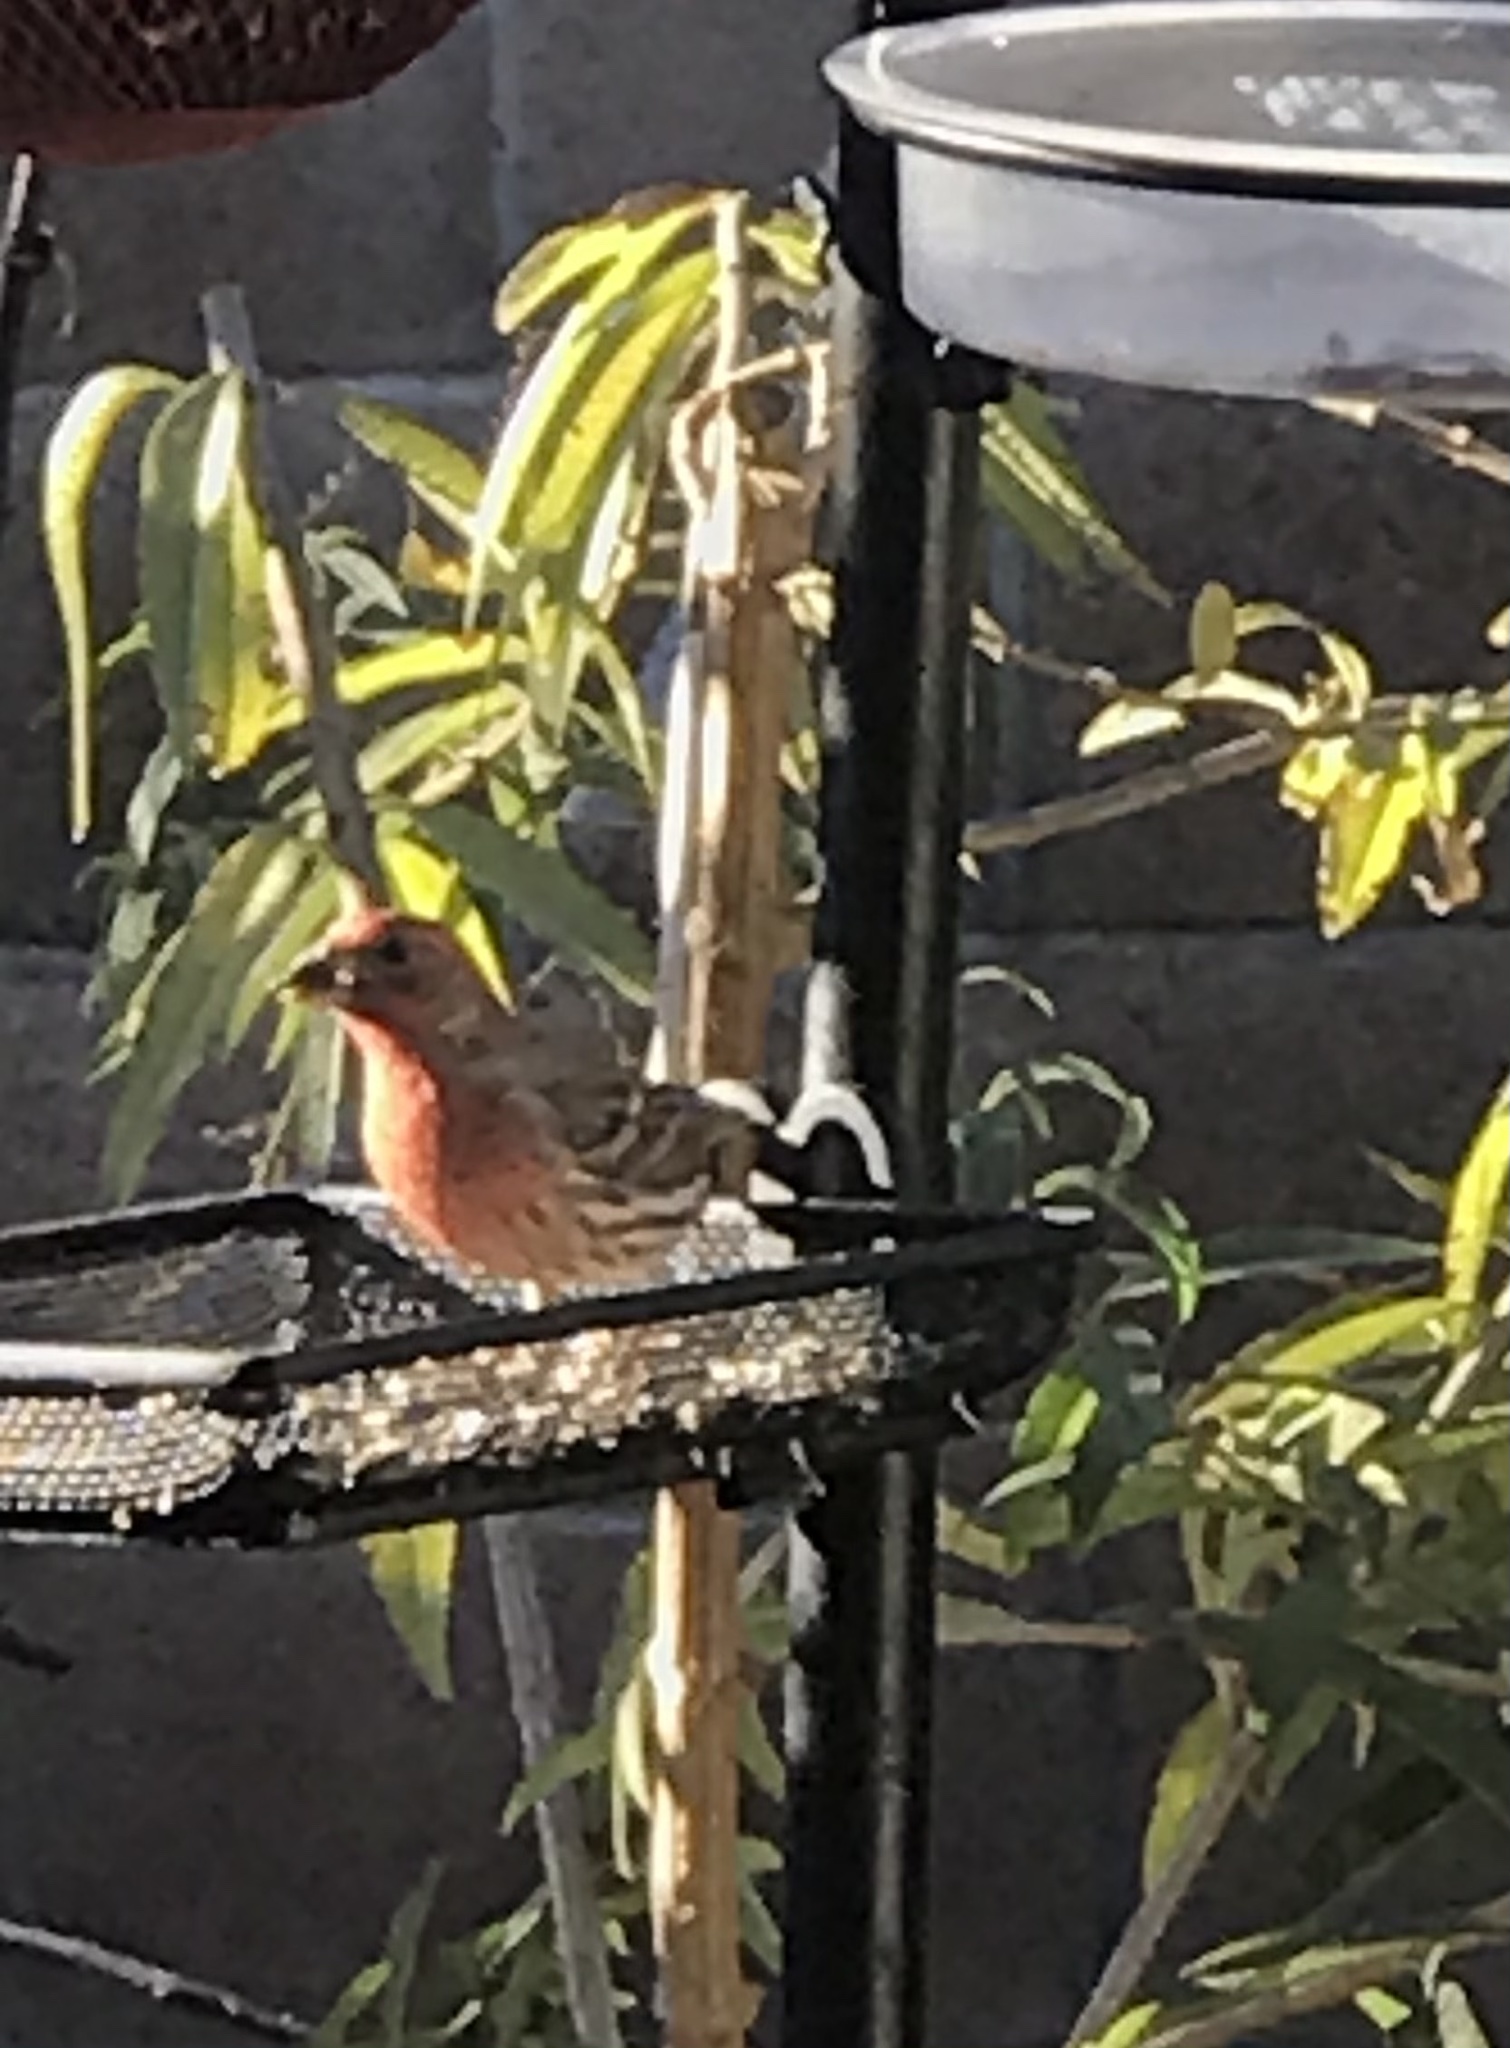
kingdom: Animalia
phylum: Chordata
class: Aves
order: Passeriformes
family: Fringillidae
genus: Haemorhous
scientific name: Haemorhous mexicanus
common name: House finch
